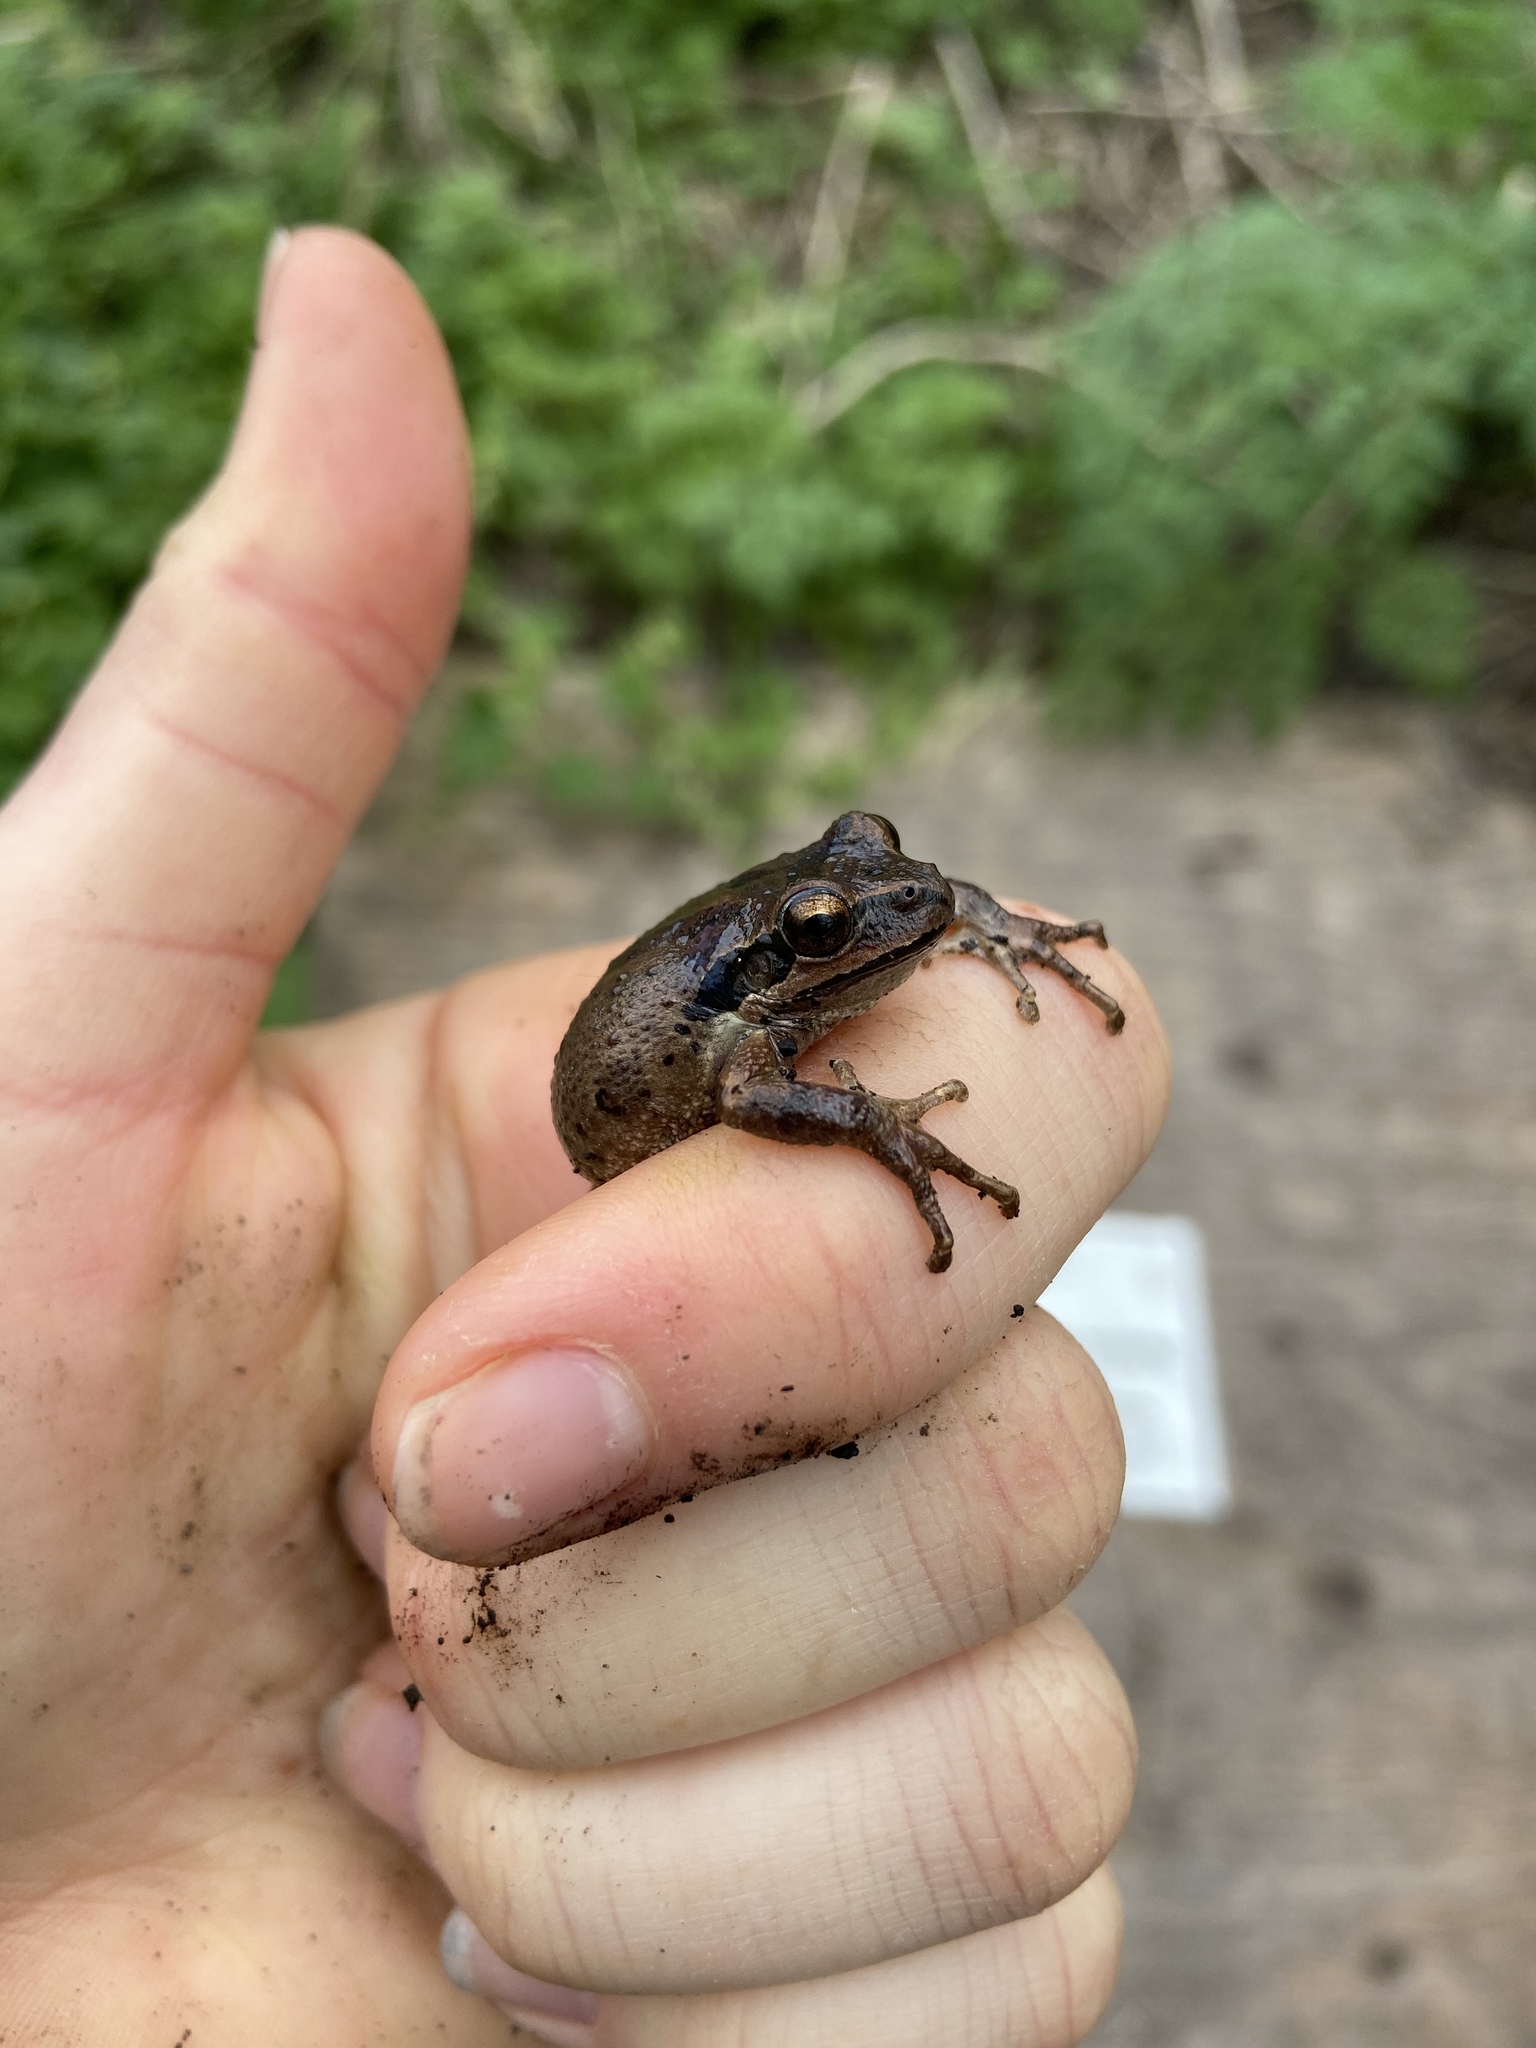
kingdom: Animalia
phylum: Chordata
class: Amphibia
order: Anura
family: Hylidae
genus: Pseudacris
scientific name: Pseudacris regilla
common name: Pacific chorus frog
